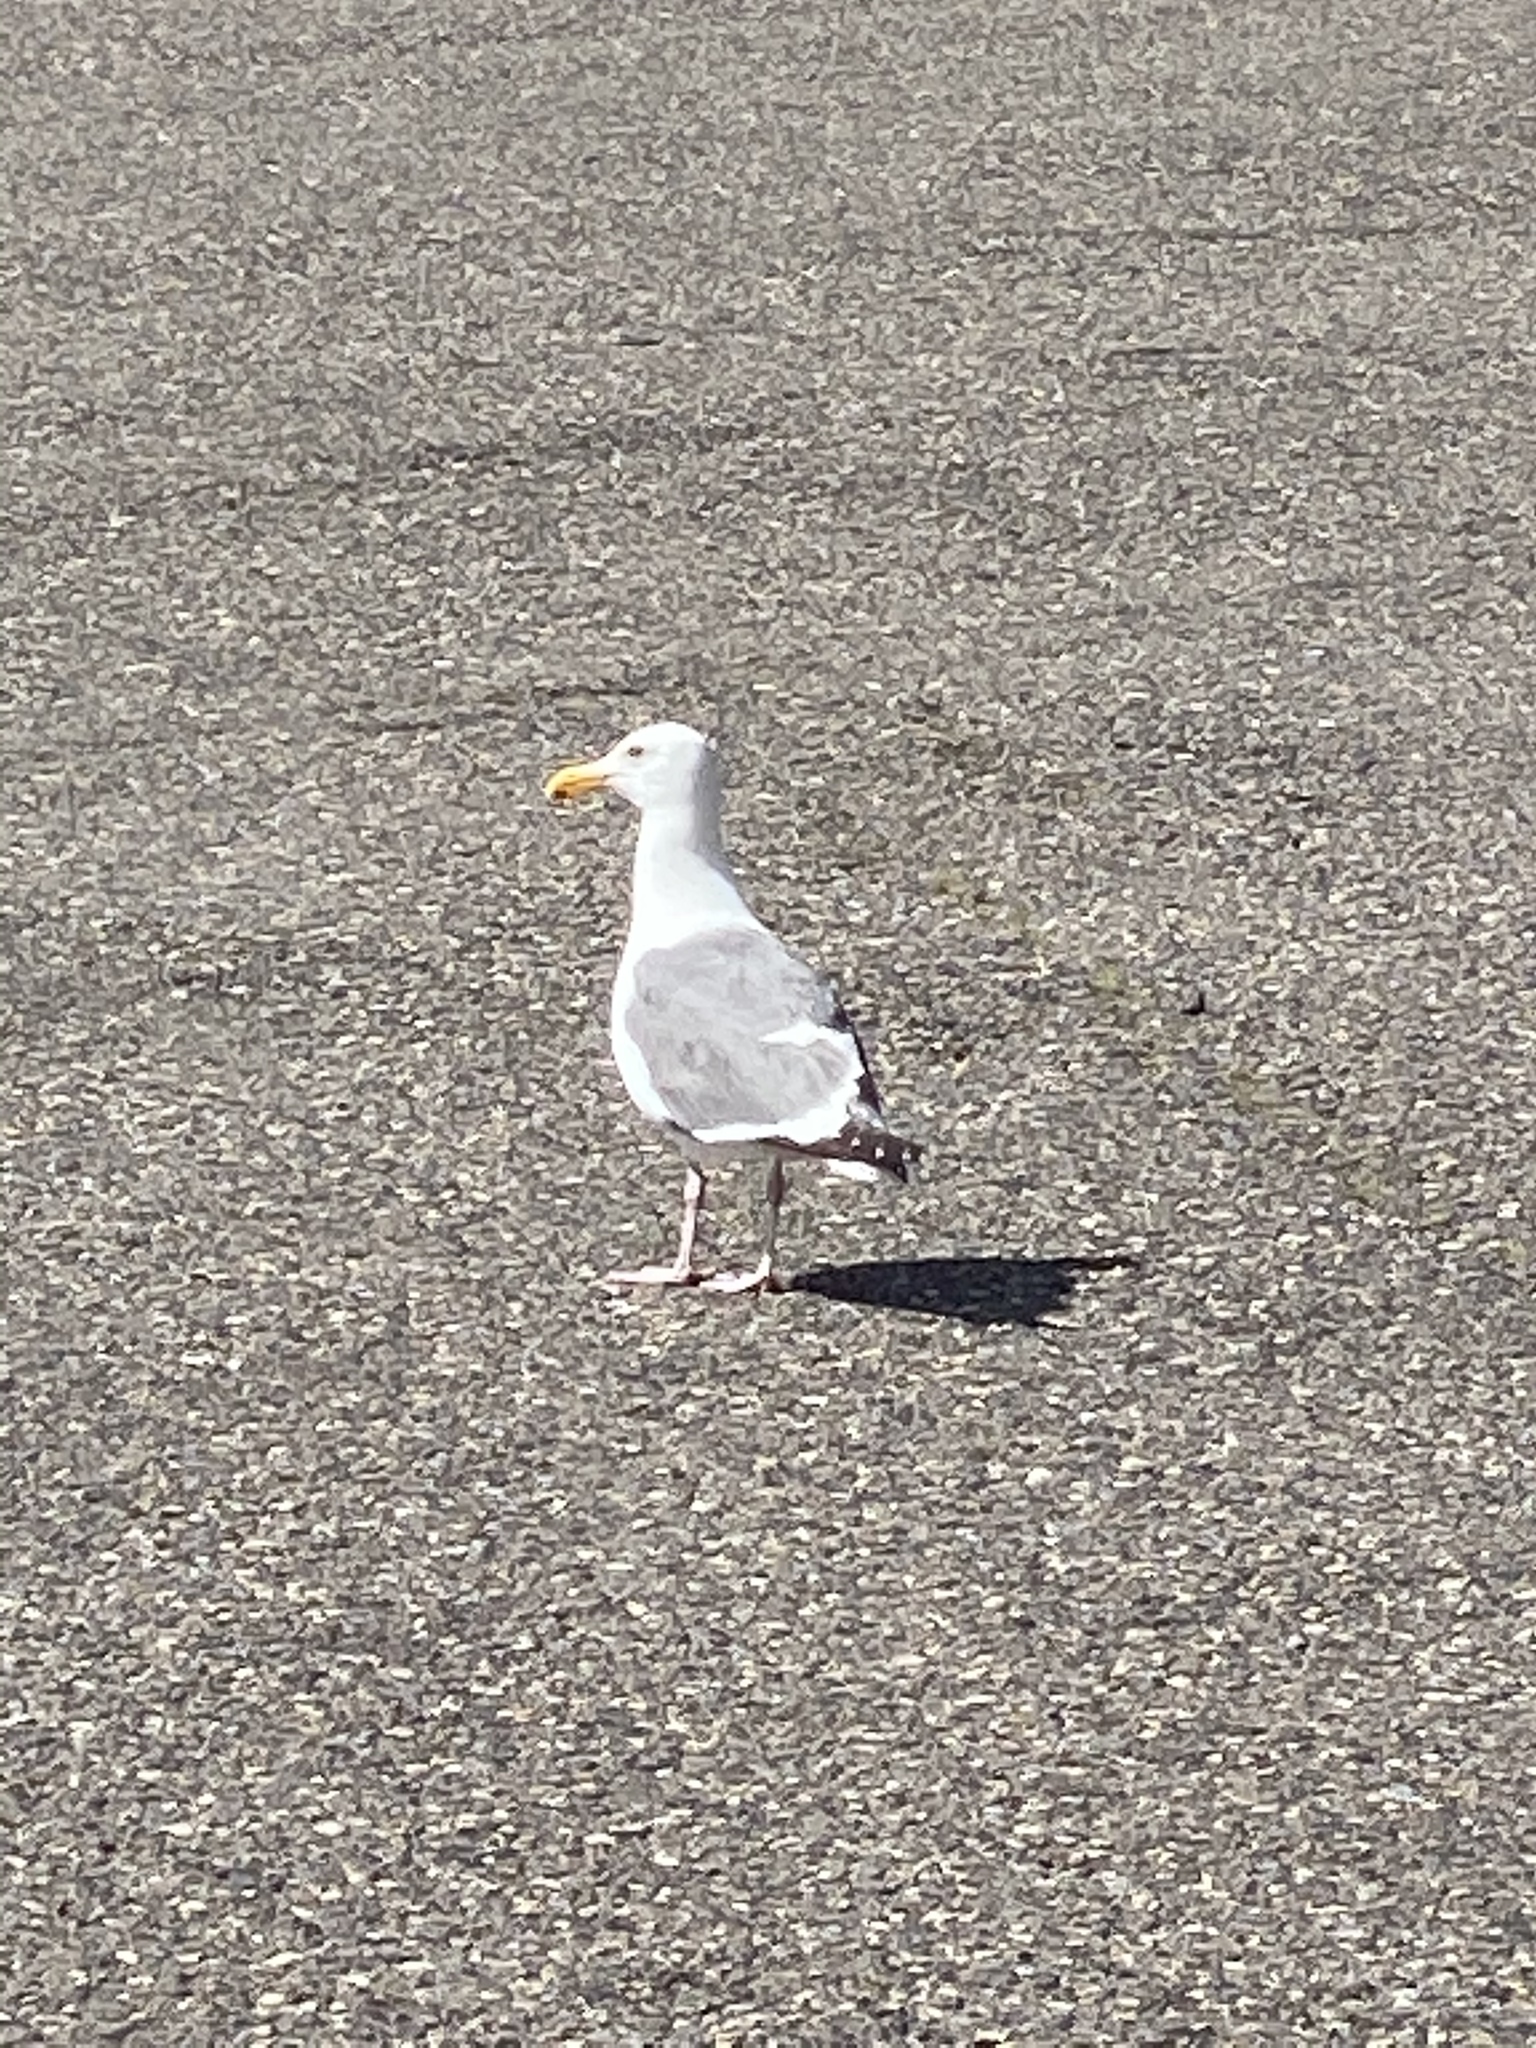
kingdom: Animalia
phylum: Chordata
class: Aves
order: Charadriiformes
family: Laridae
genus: Larus
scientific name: Larus occidentalis
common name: Western gull
